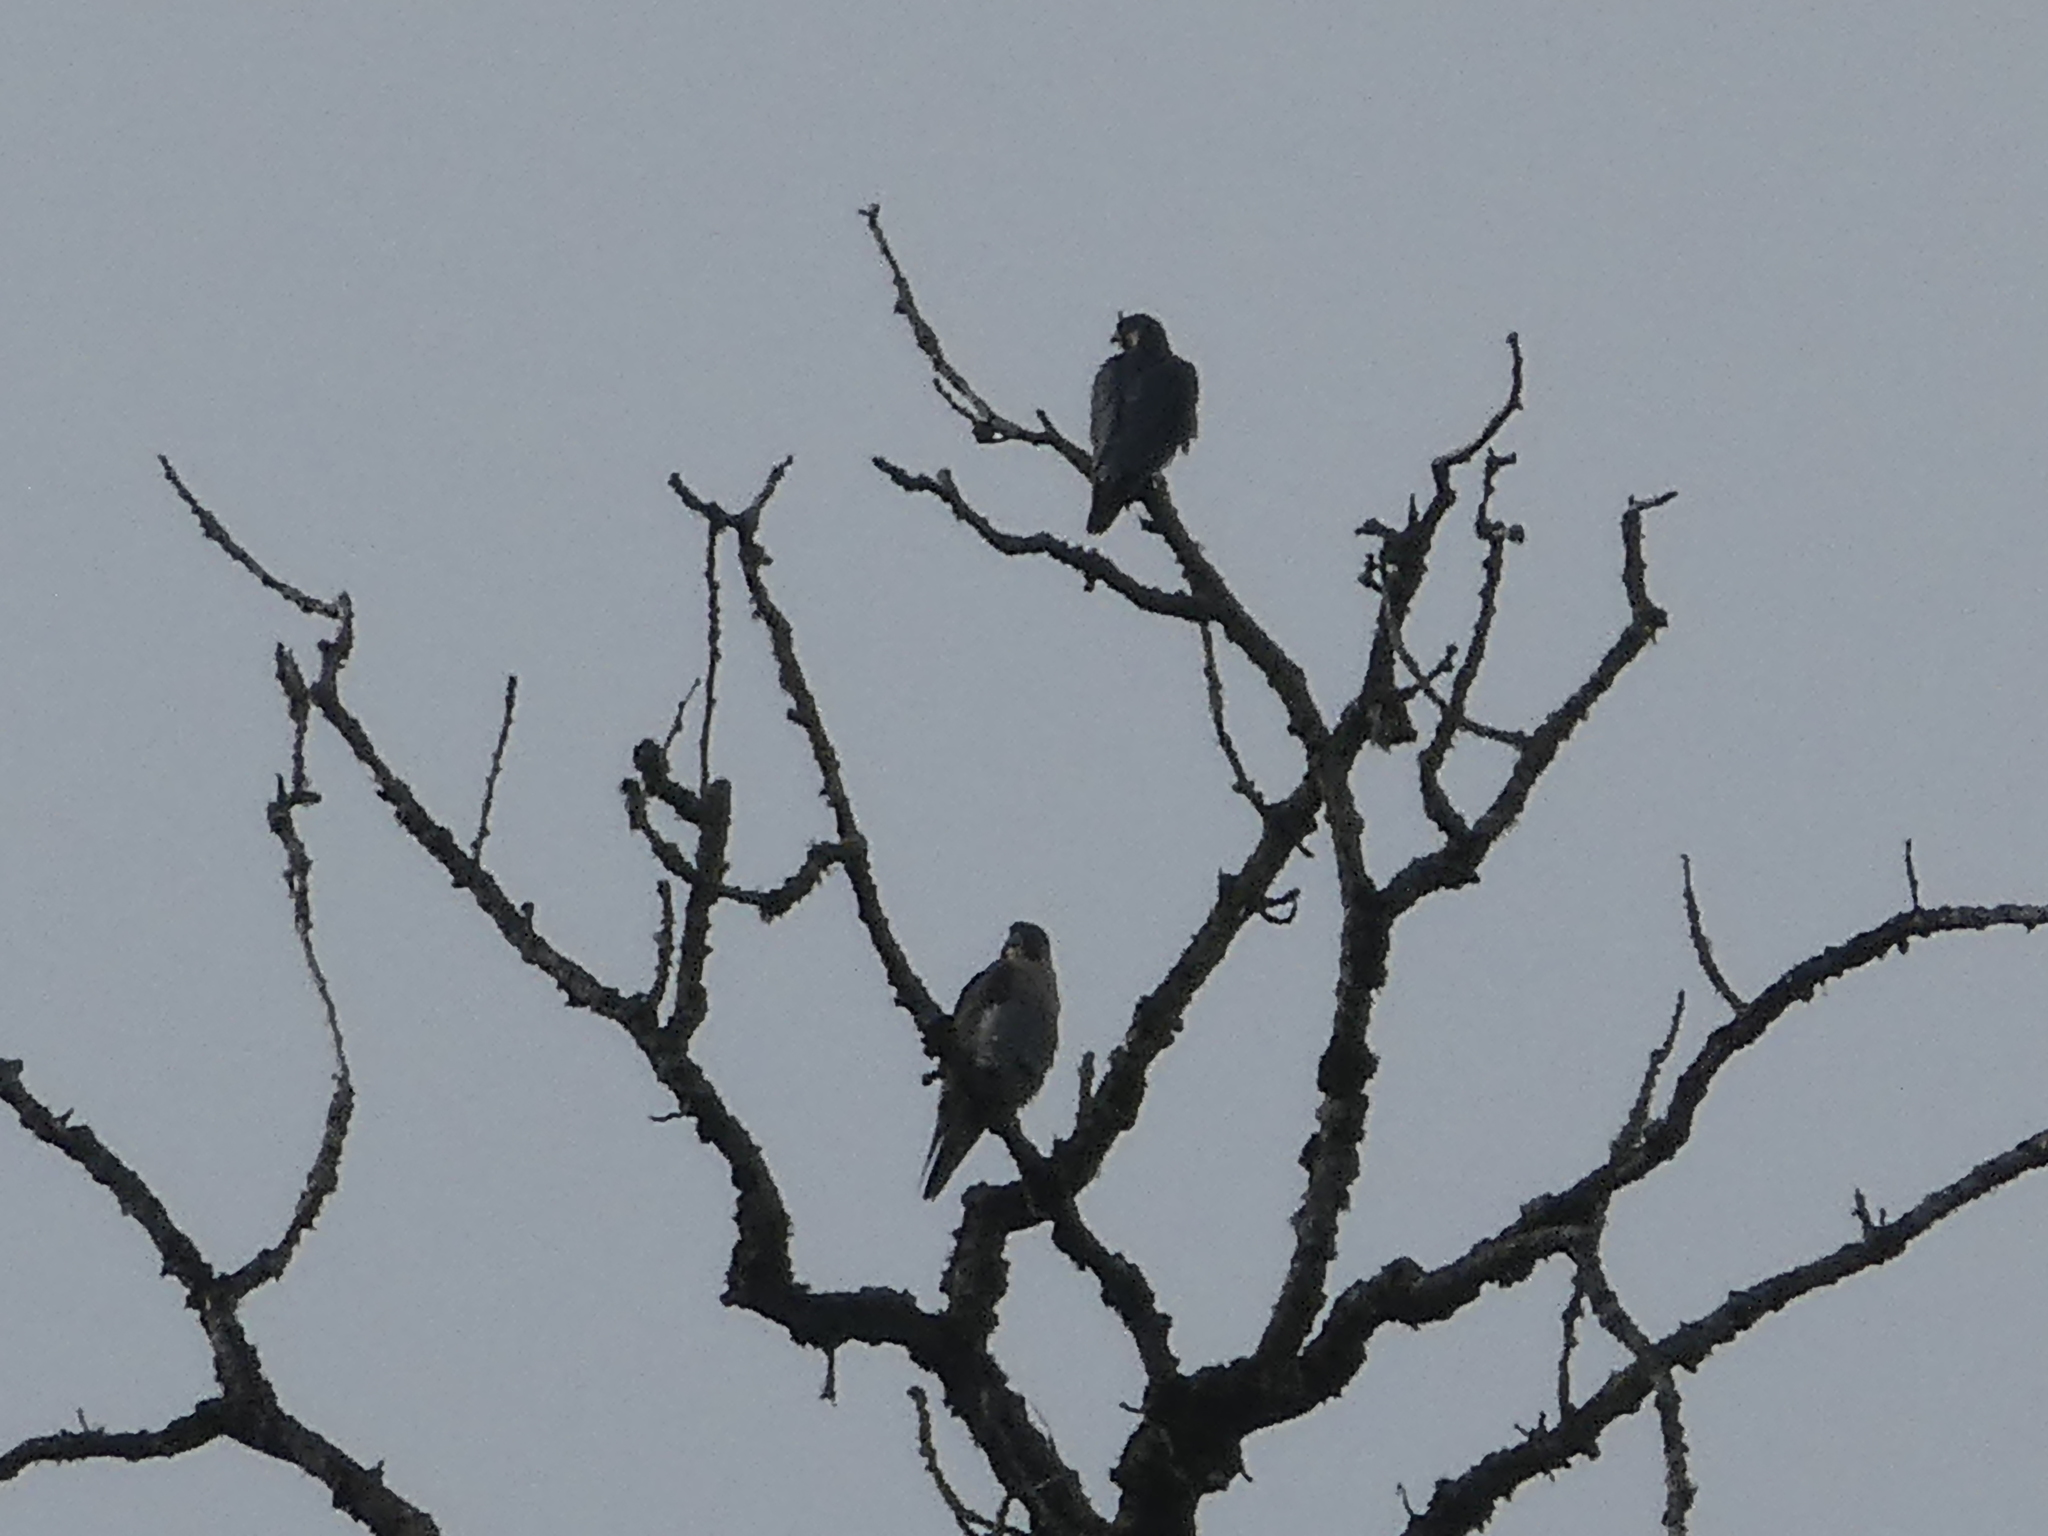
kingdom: Animalia
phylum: Chordata
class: Aves
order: Falconiformes
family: Falconidae
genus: Falco
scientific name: Falco peregrinus
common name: Peregrine falcon
